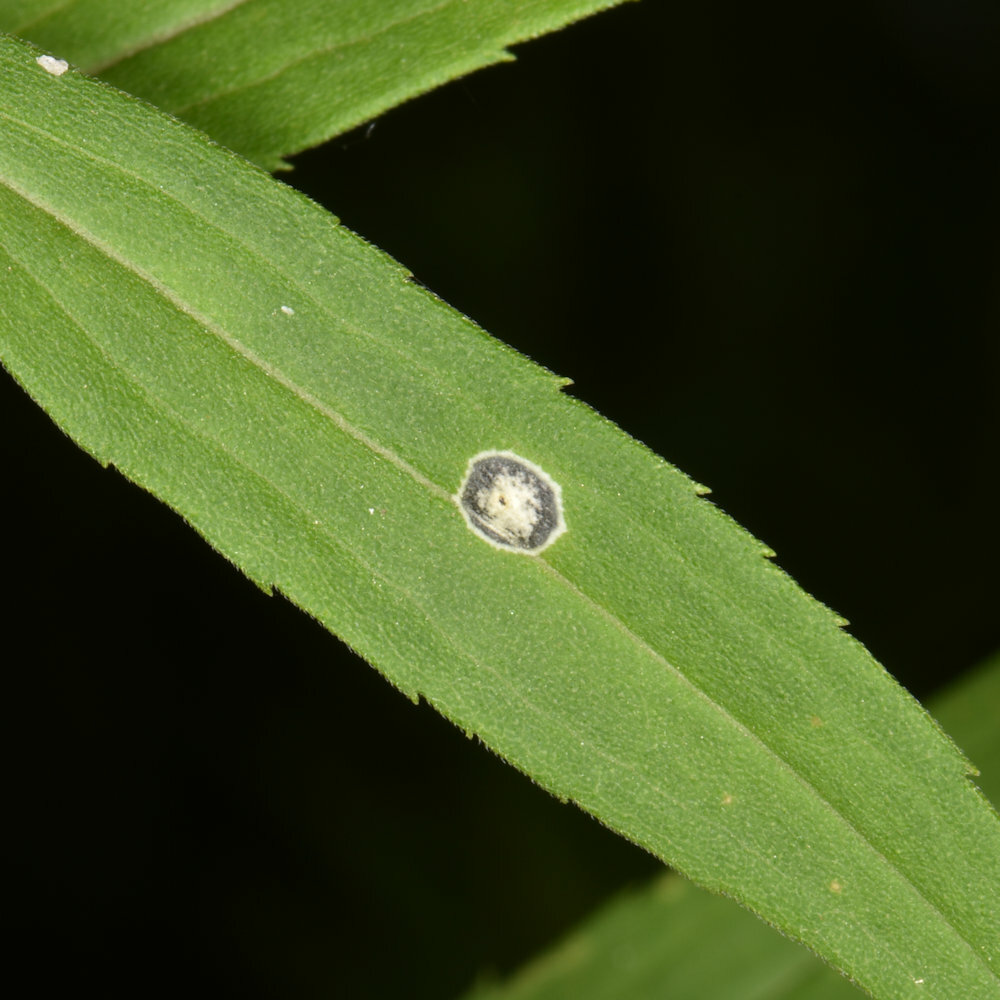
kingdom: Animalia
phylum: Arthropoda
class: Insecta
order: Diptera
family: Cecidomyiidae
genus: Asteromyia
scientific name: Asteromyia carbonifera
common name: Carbonifera goldenrod gall midge
